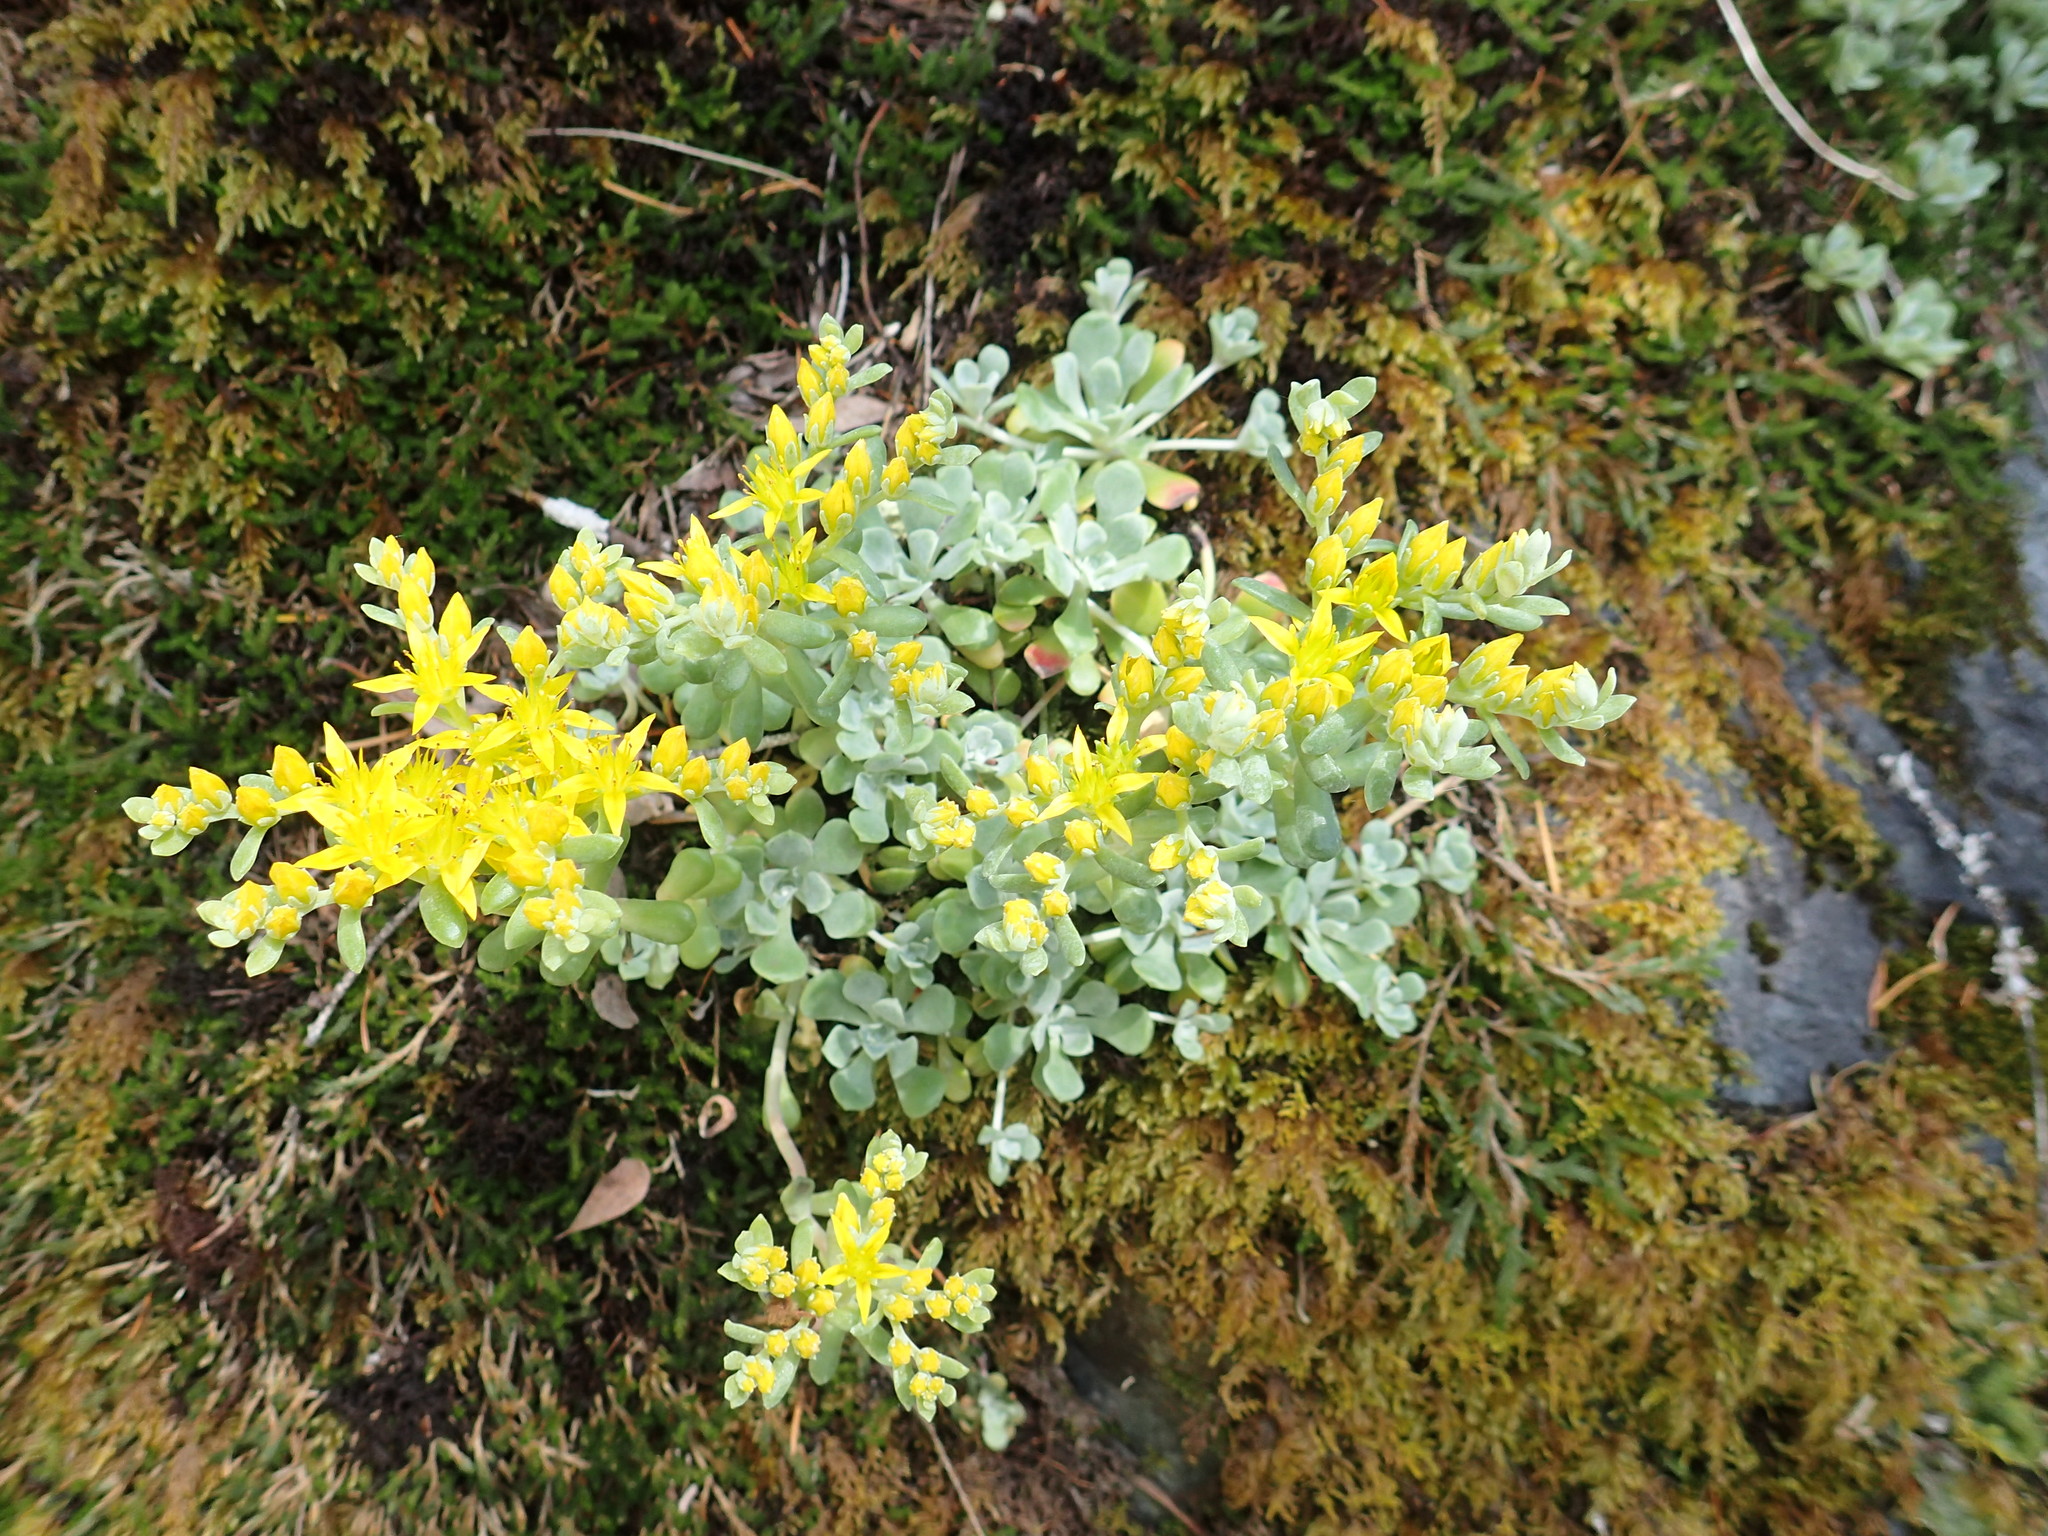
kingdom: Plantae
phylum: Tracheophyta
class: Magnoliopsida
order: Saxifragales
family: Crassulaceae
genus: Sedum
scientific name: Sedum spathulifolium
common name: Colorado stonecrop
